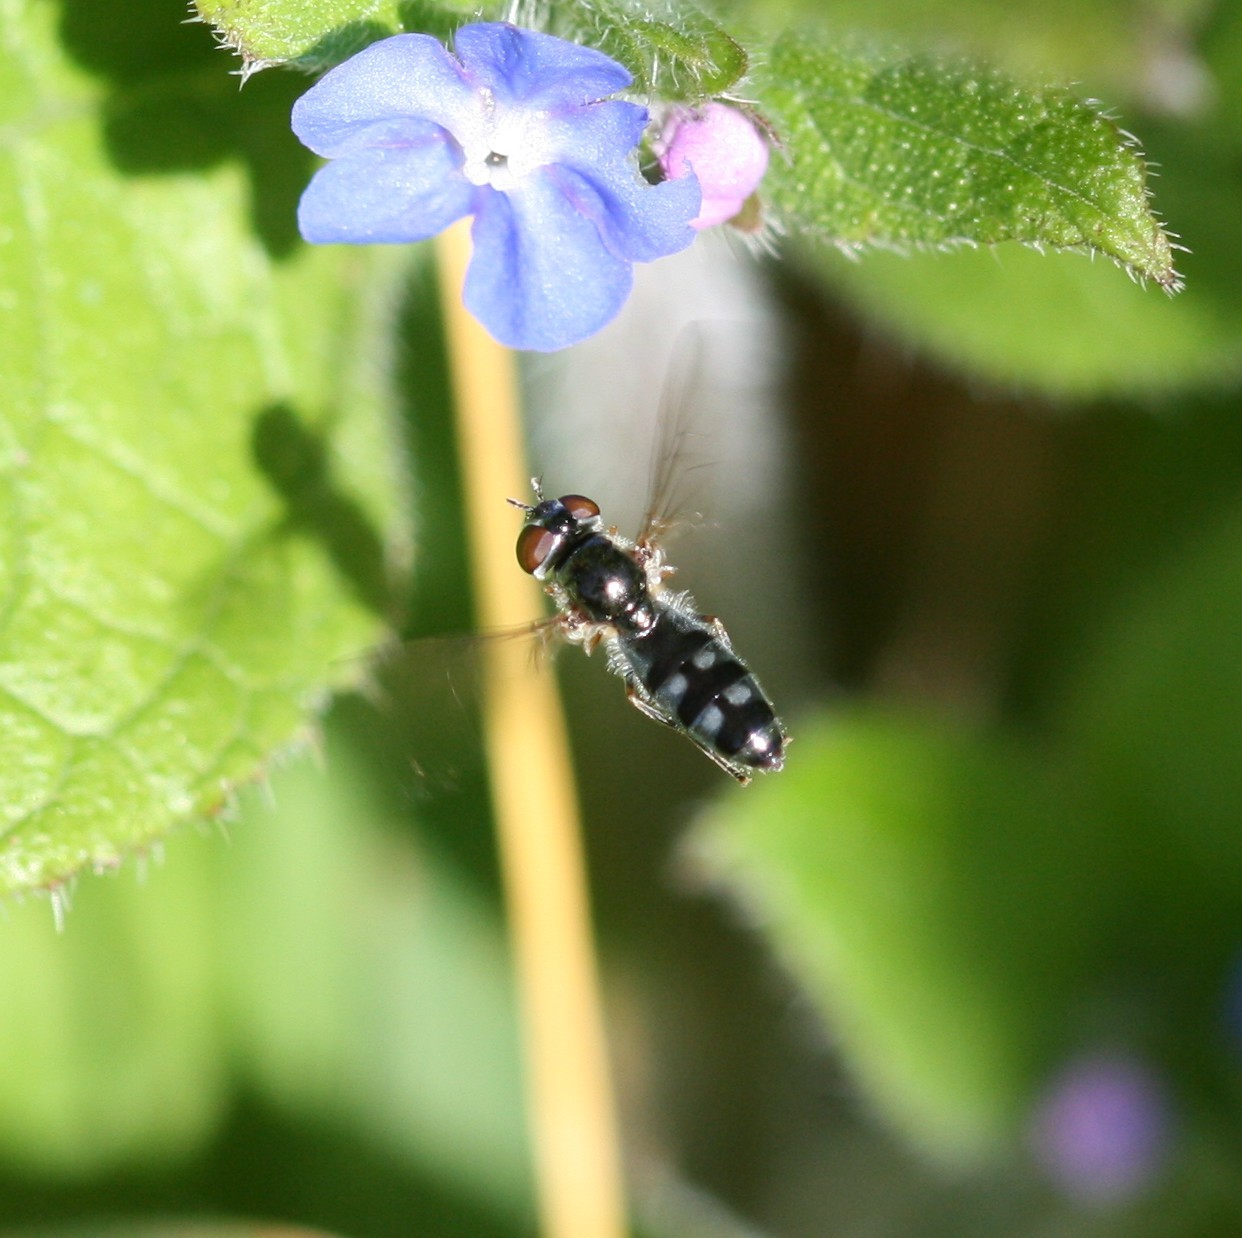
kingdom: Animalia
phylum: Arthropoda
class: Insecta
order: Diptera
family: Syrphidae
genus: Platycheirus
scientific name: Platycheirus albimanus
